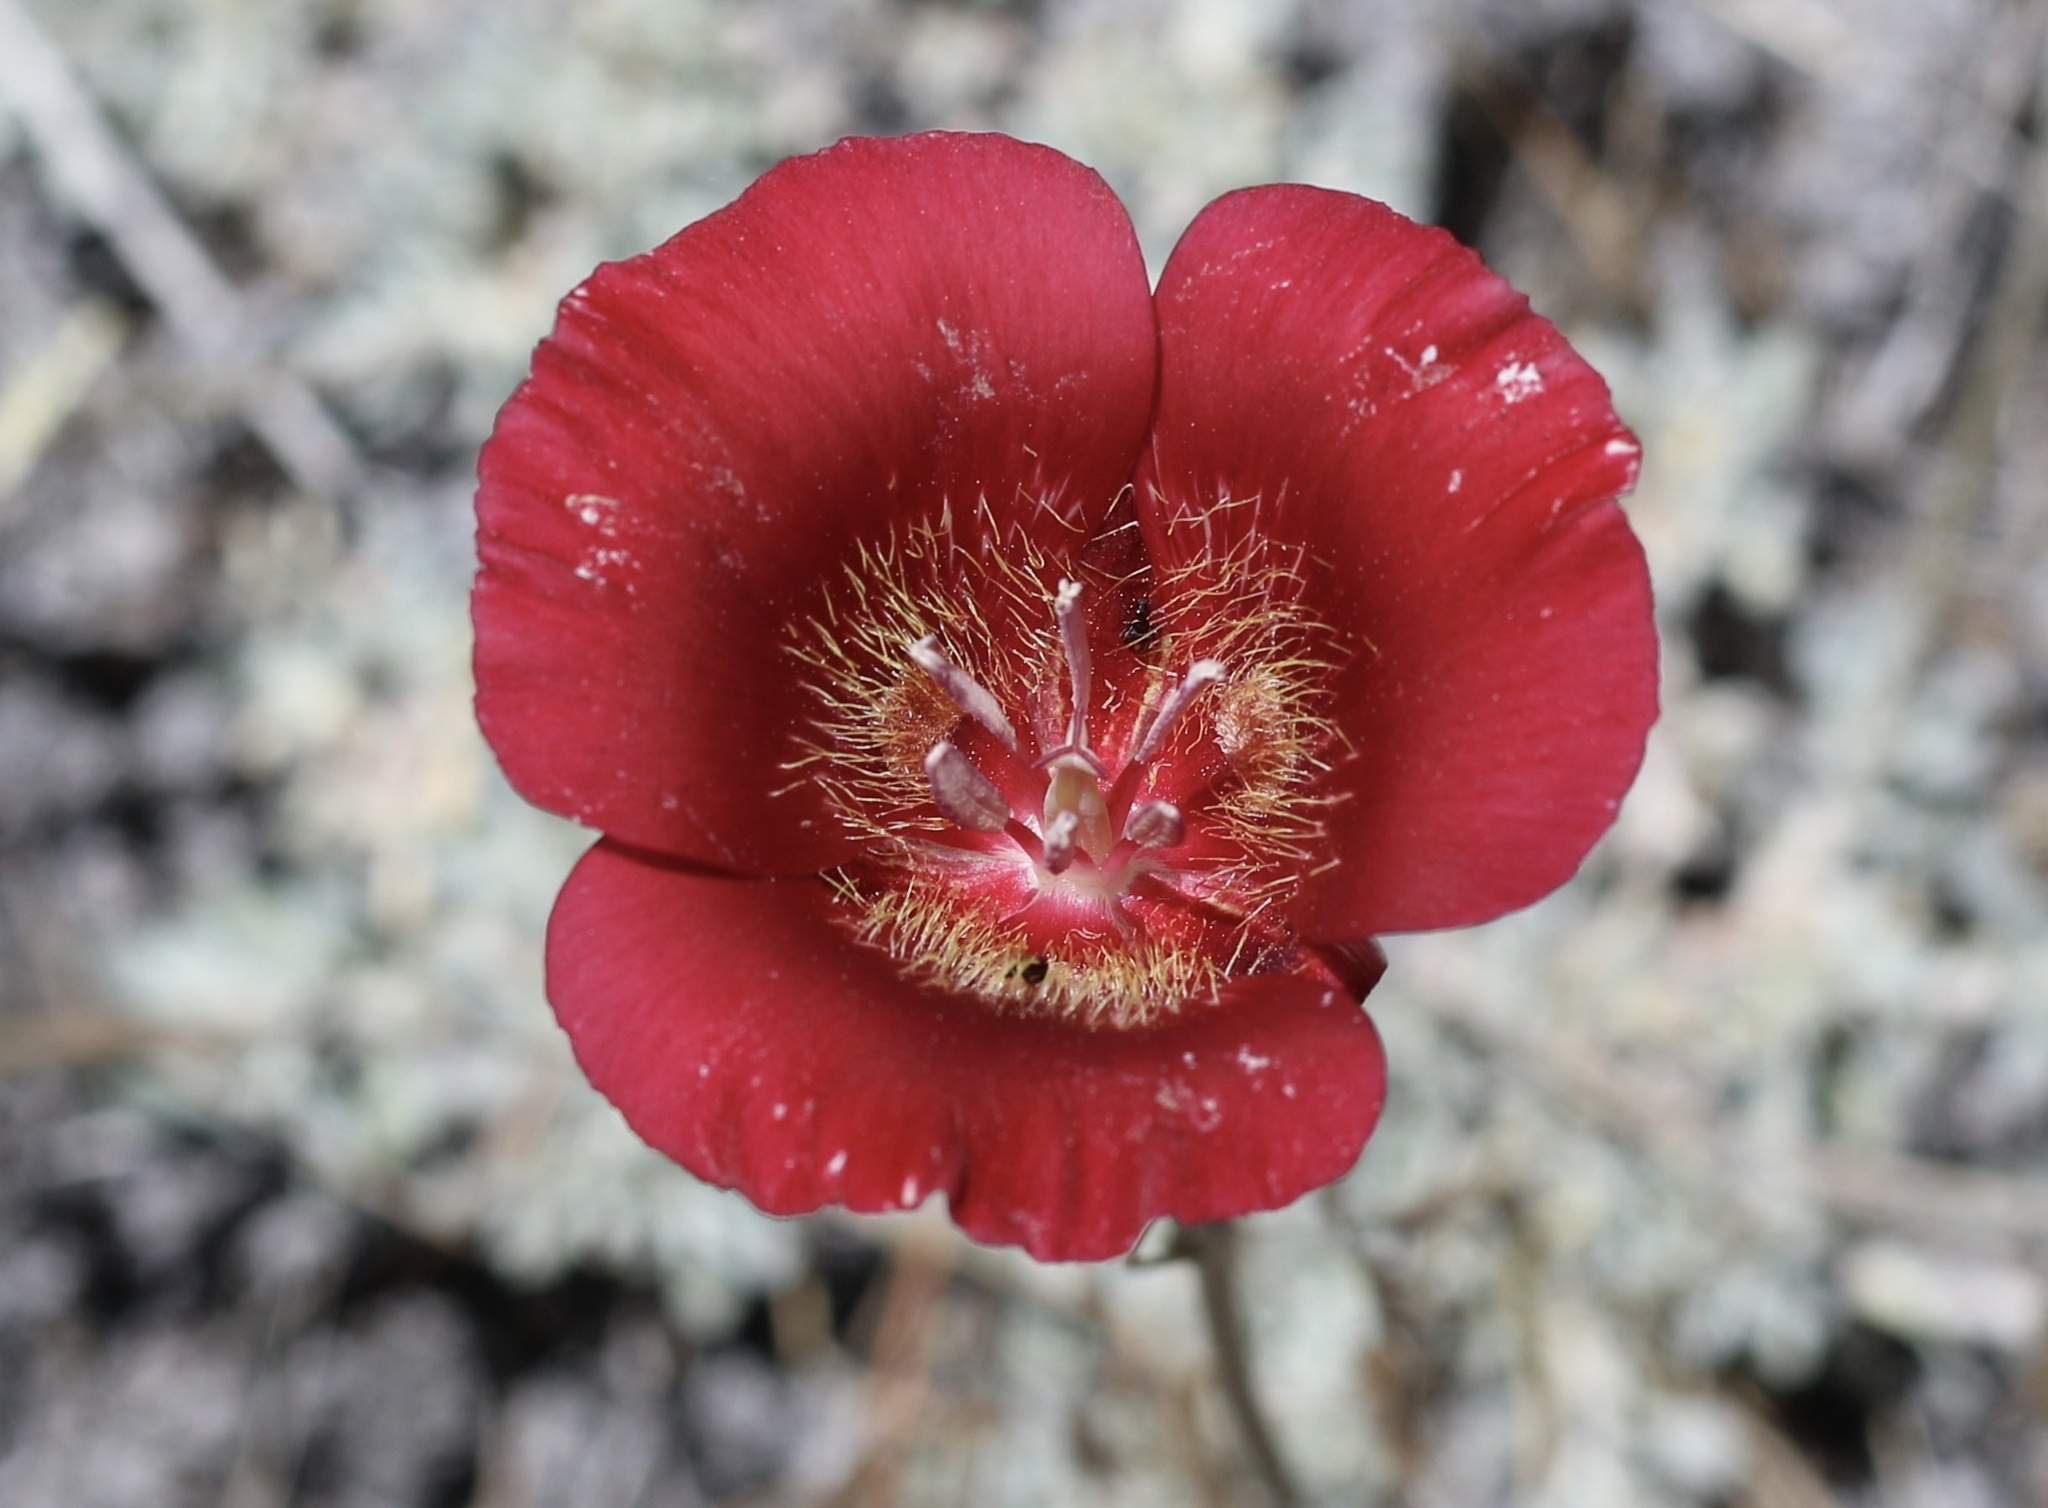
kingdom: Plantae
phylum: Tracheophyta
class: Liliopsida
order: Liliales
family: Liliaceae
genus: Calochortus
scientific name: Calochortus venustus
